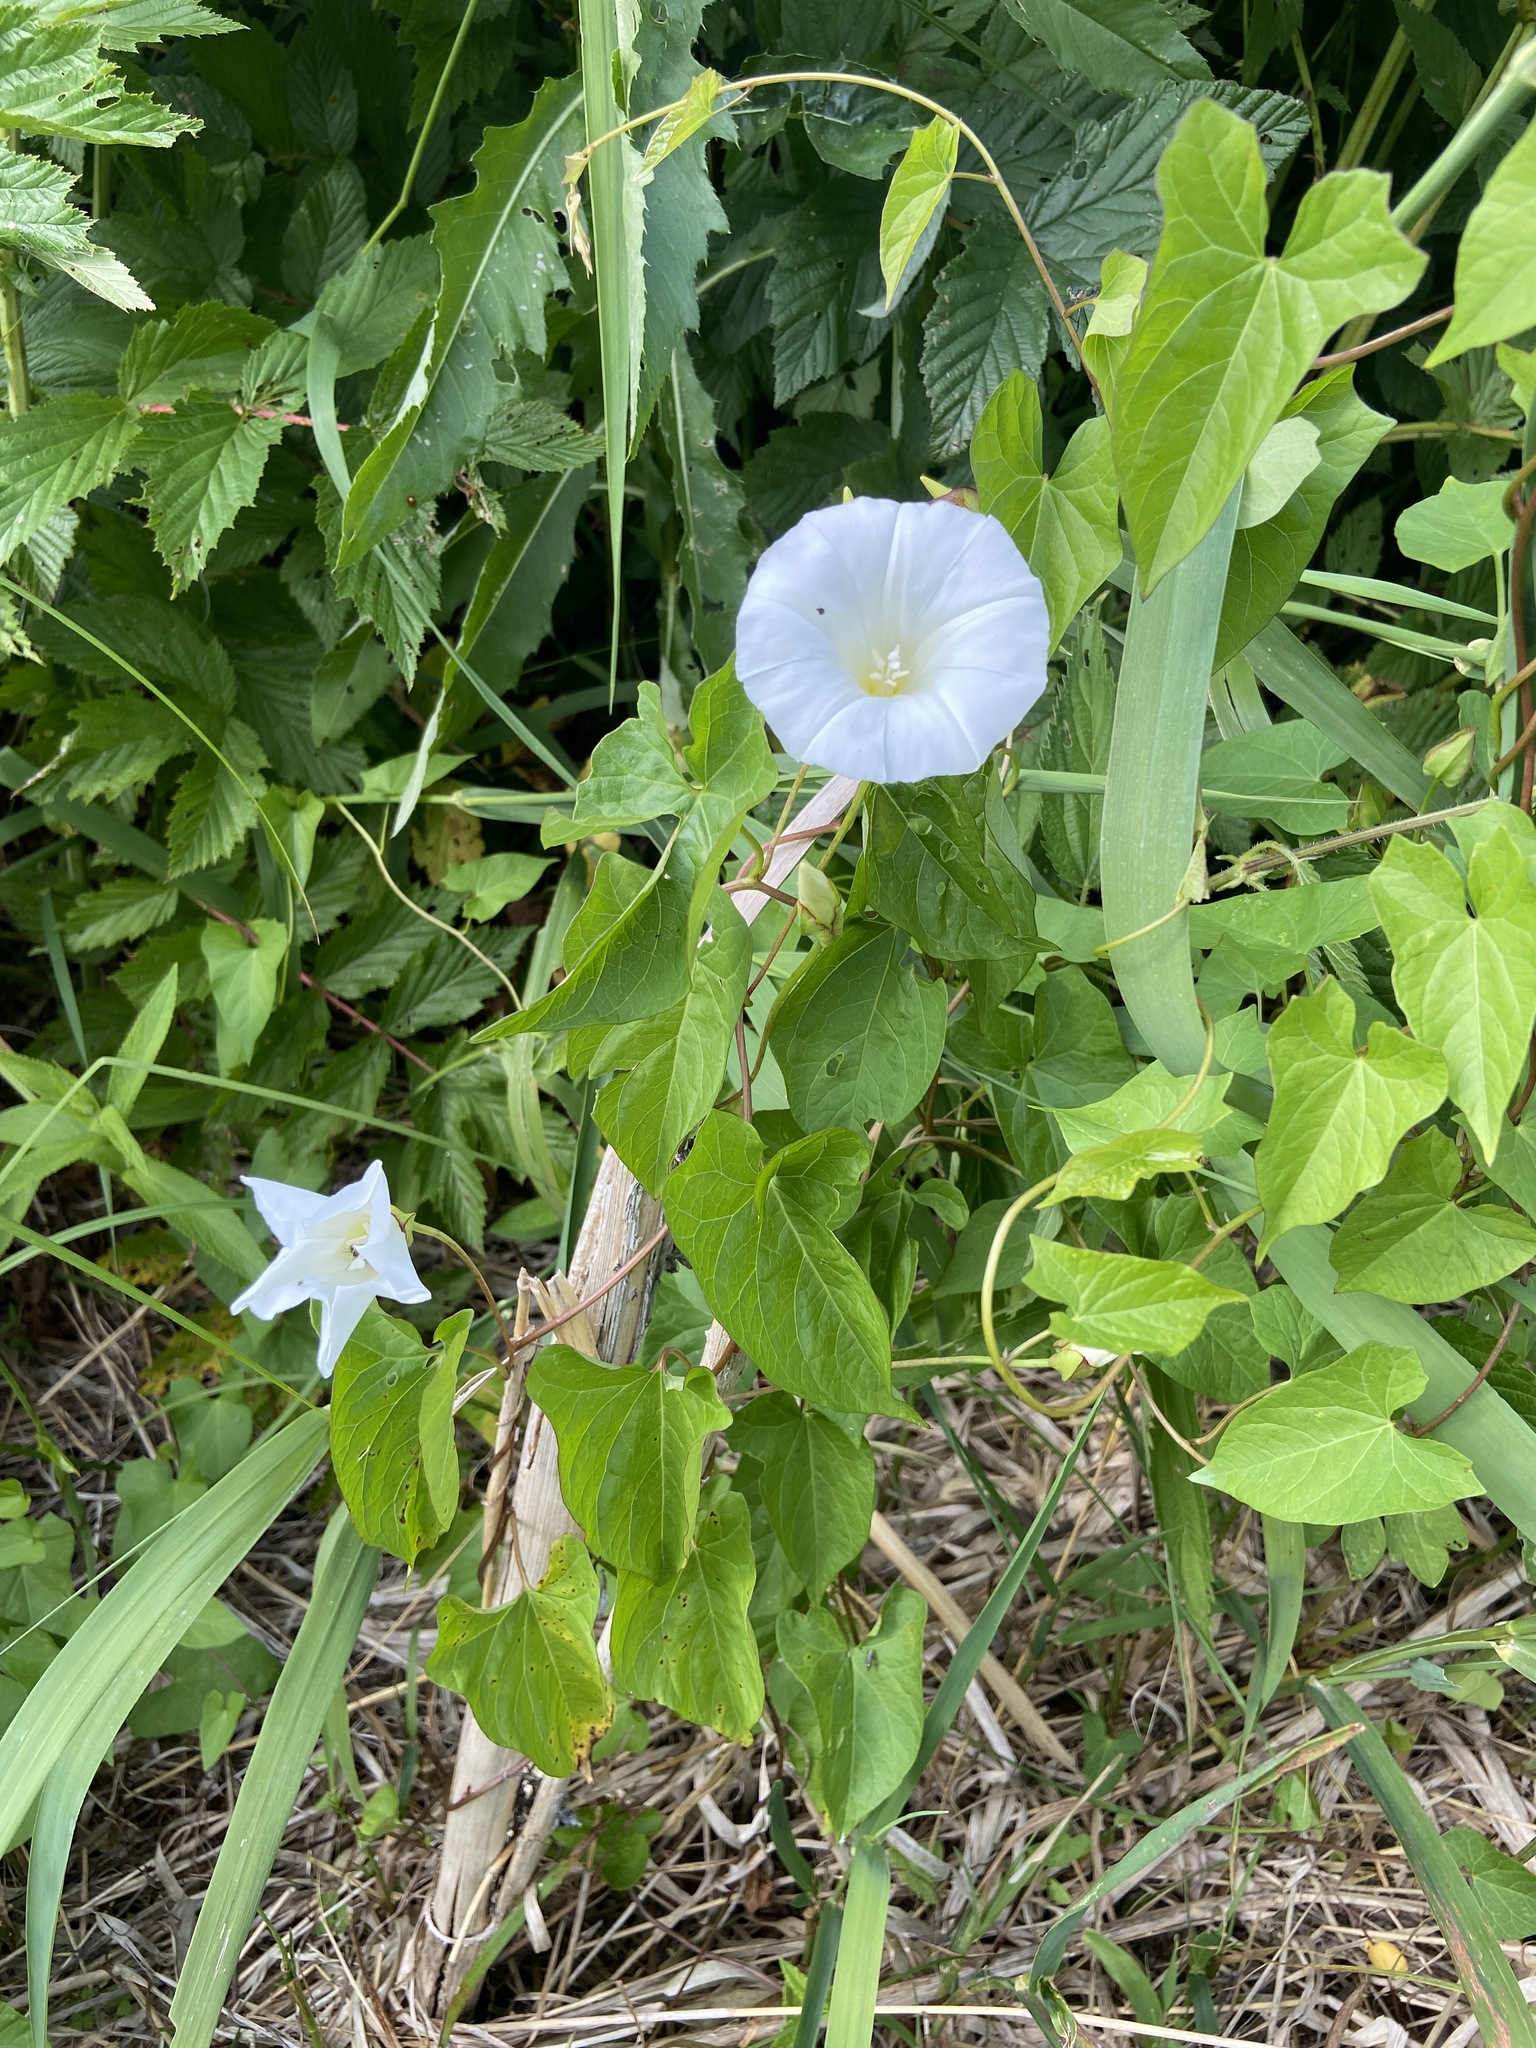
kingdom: Plantae
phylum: Tracheophyta
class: Magnoliopsida
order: Solanales
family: Convolvulaceae
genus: Calystegia
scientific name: Calystegia sepium
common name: Hedge bindweed
